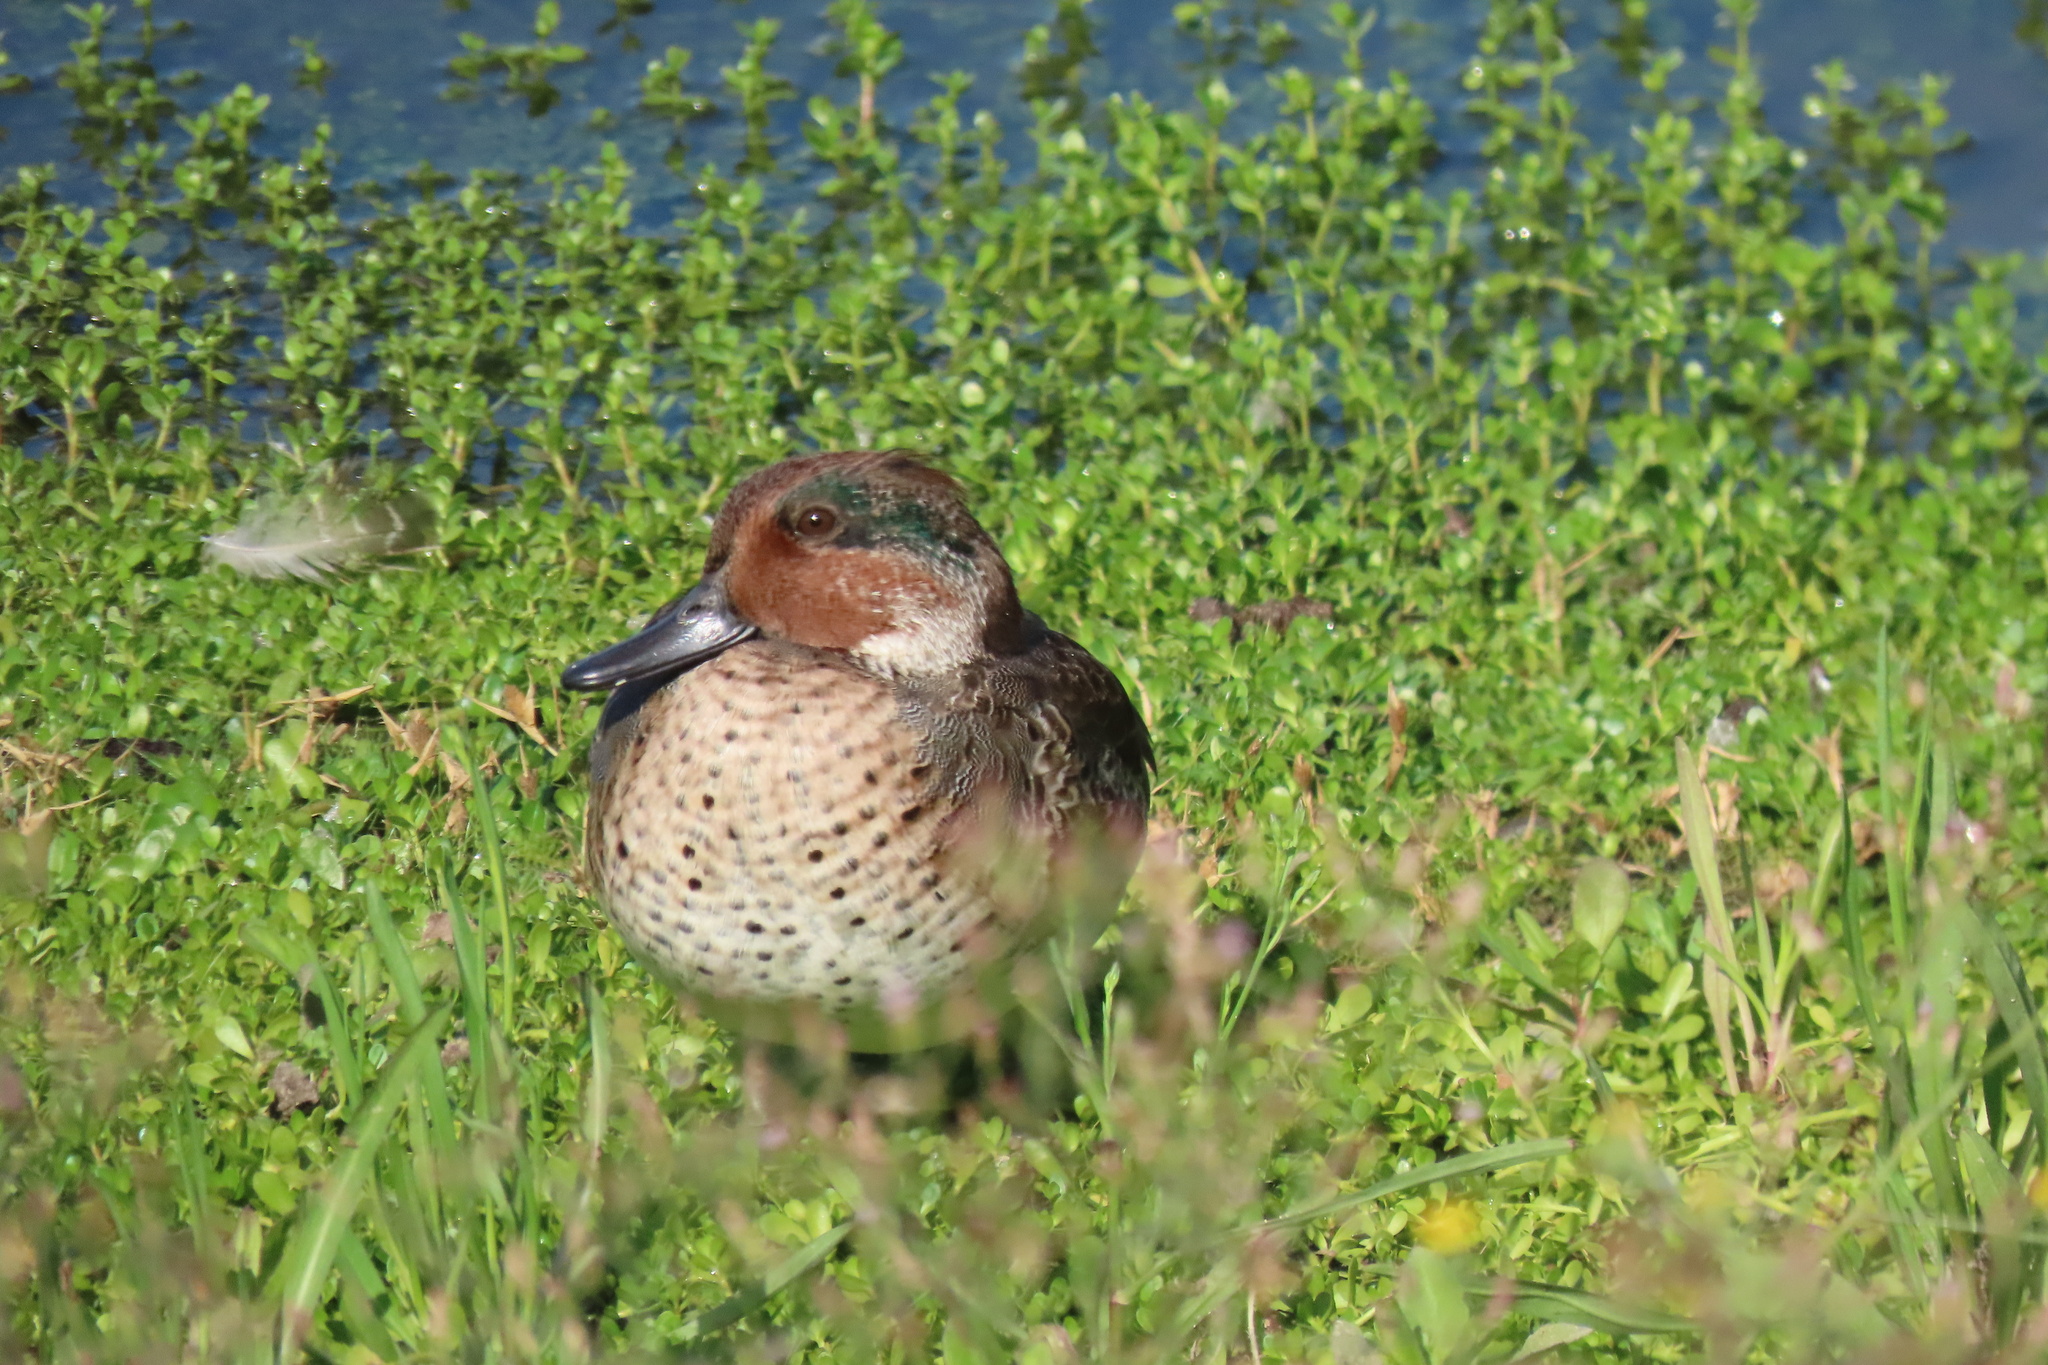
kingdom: Animalia
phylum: Chordata
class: Aves
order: Anseriformes
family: Anatidae
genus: Anas
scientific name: Anas crecca
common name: Eurasian teal
